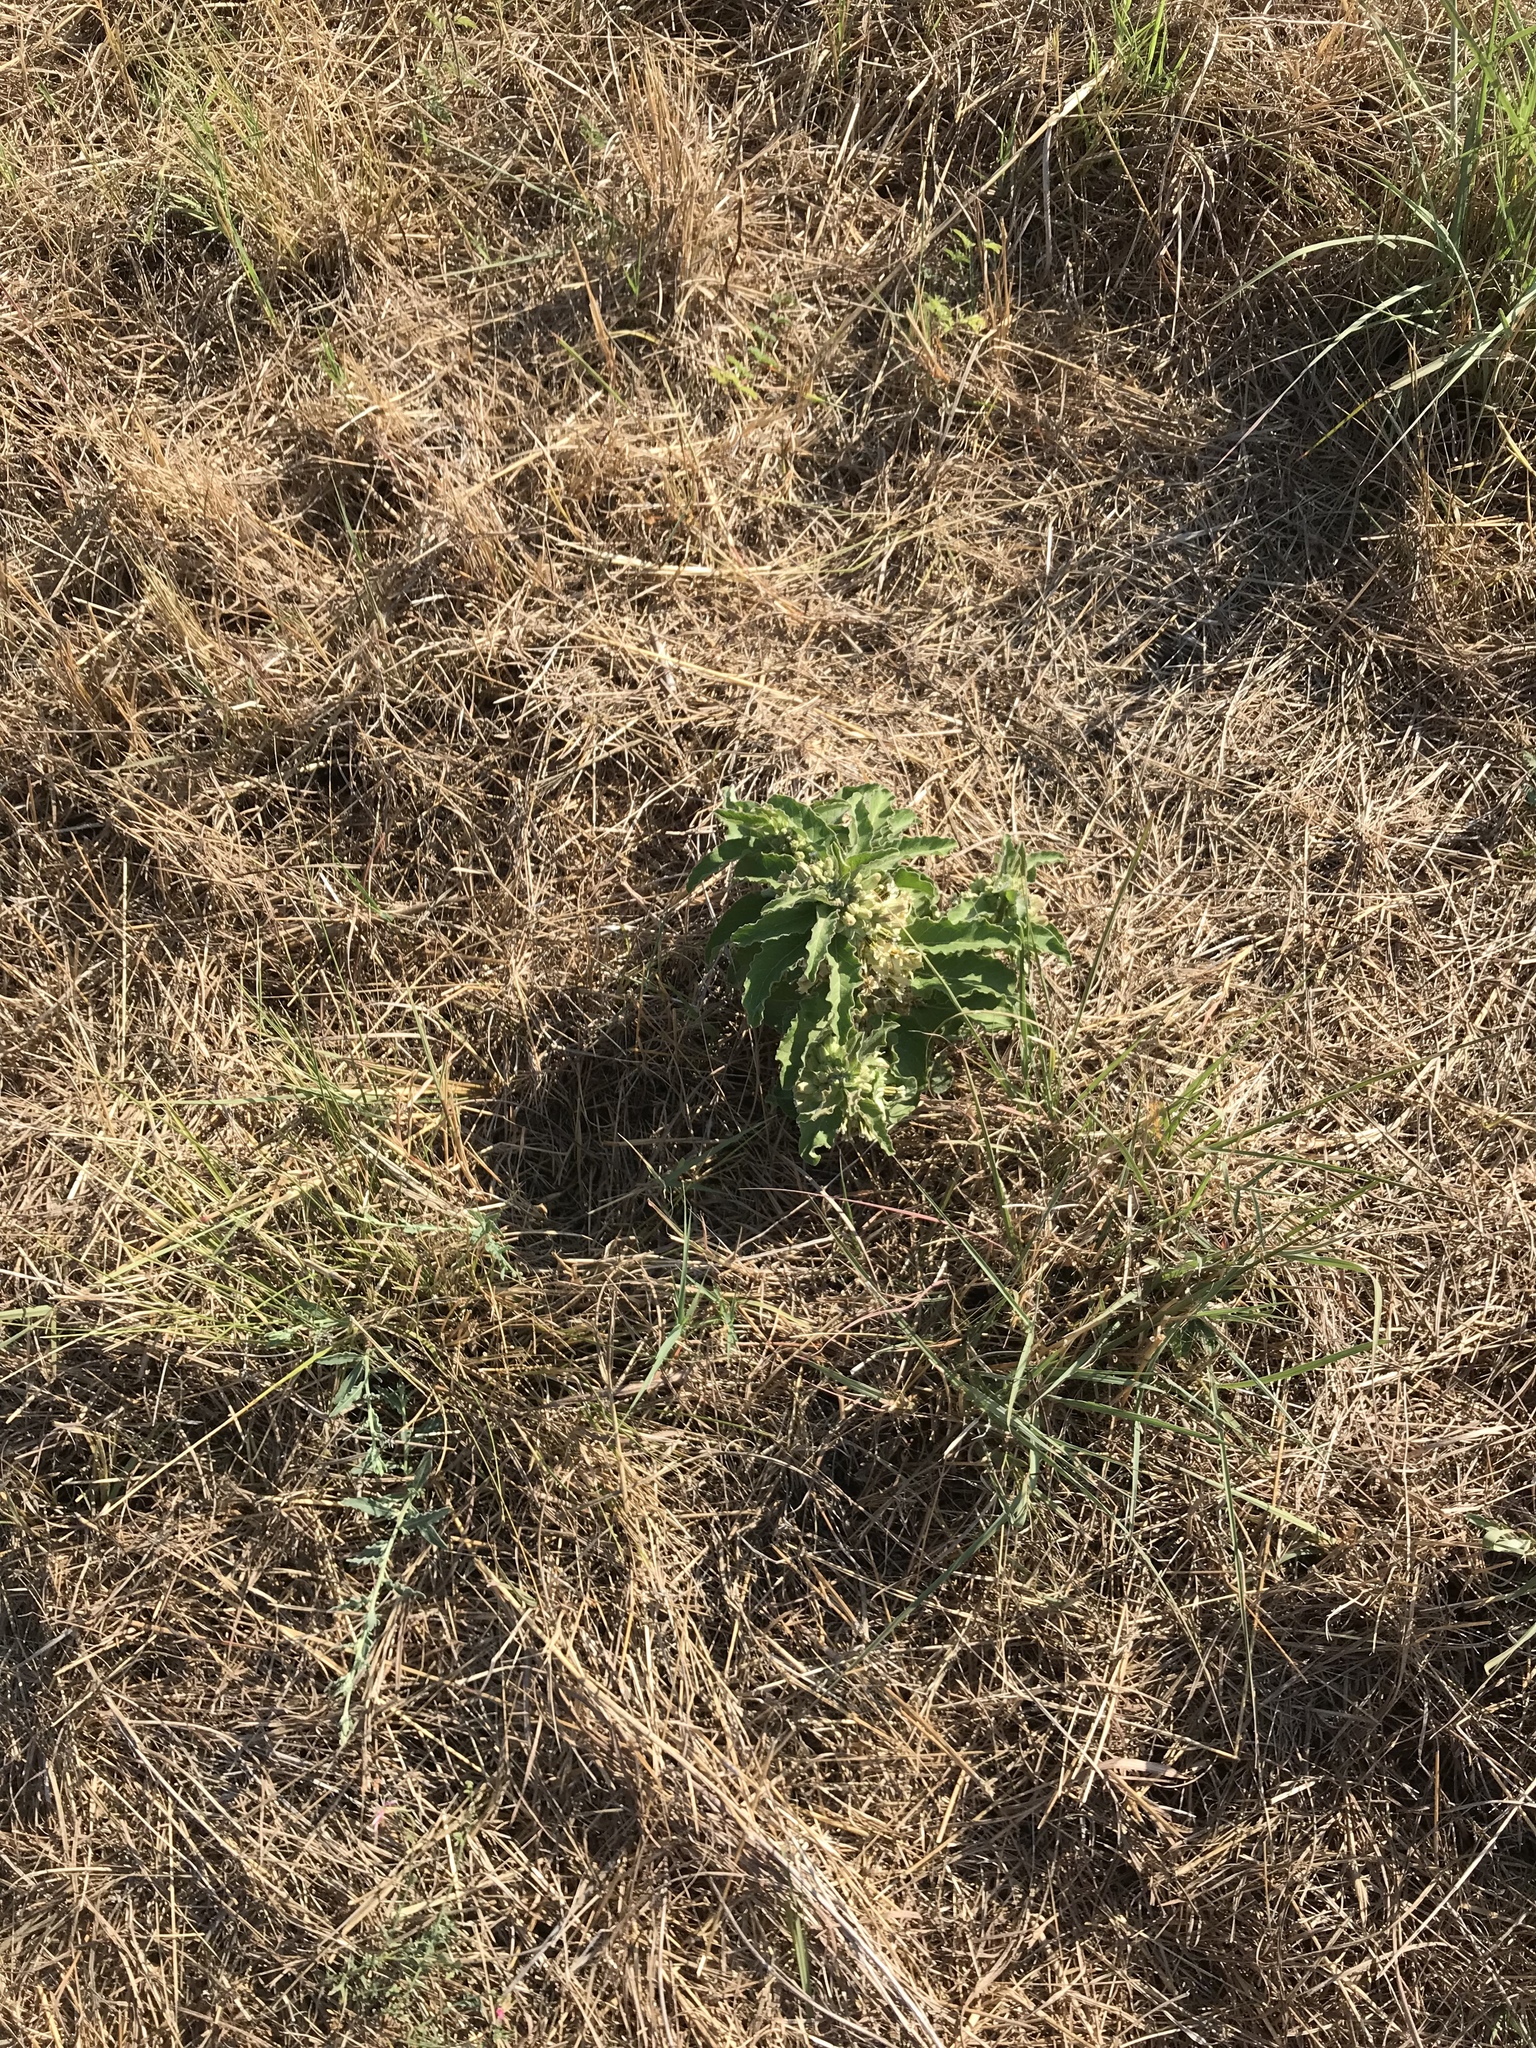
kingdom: Plantae
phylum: Tracheophyta
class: Magnoliopsida
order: Gentianales
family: Apocynaceae
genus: Asclepias
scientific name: Asclepias oenotheroides
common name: Zizotes milkweed
